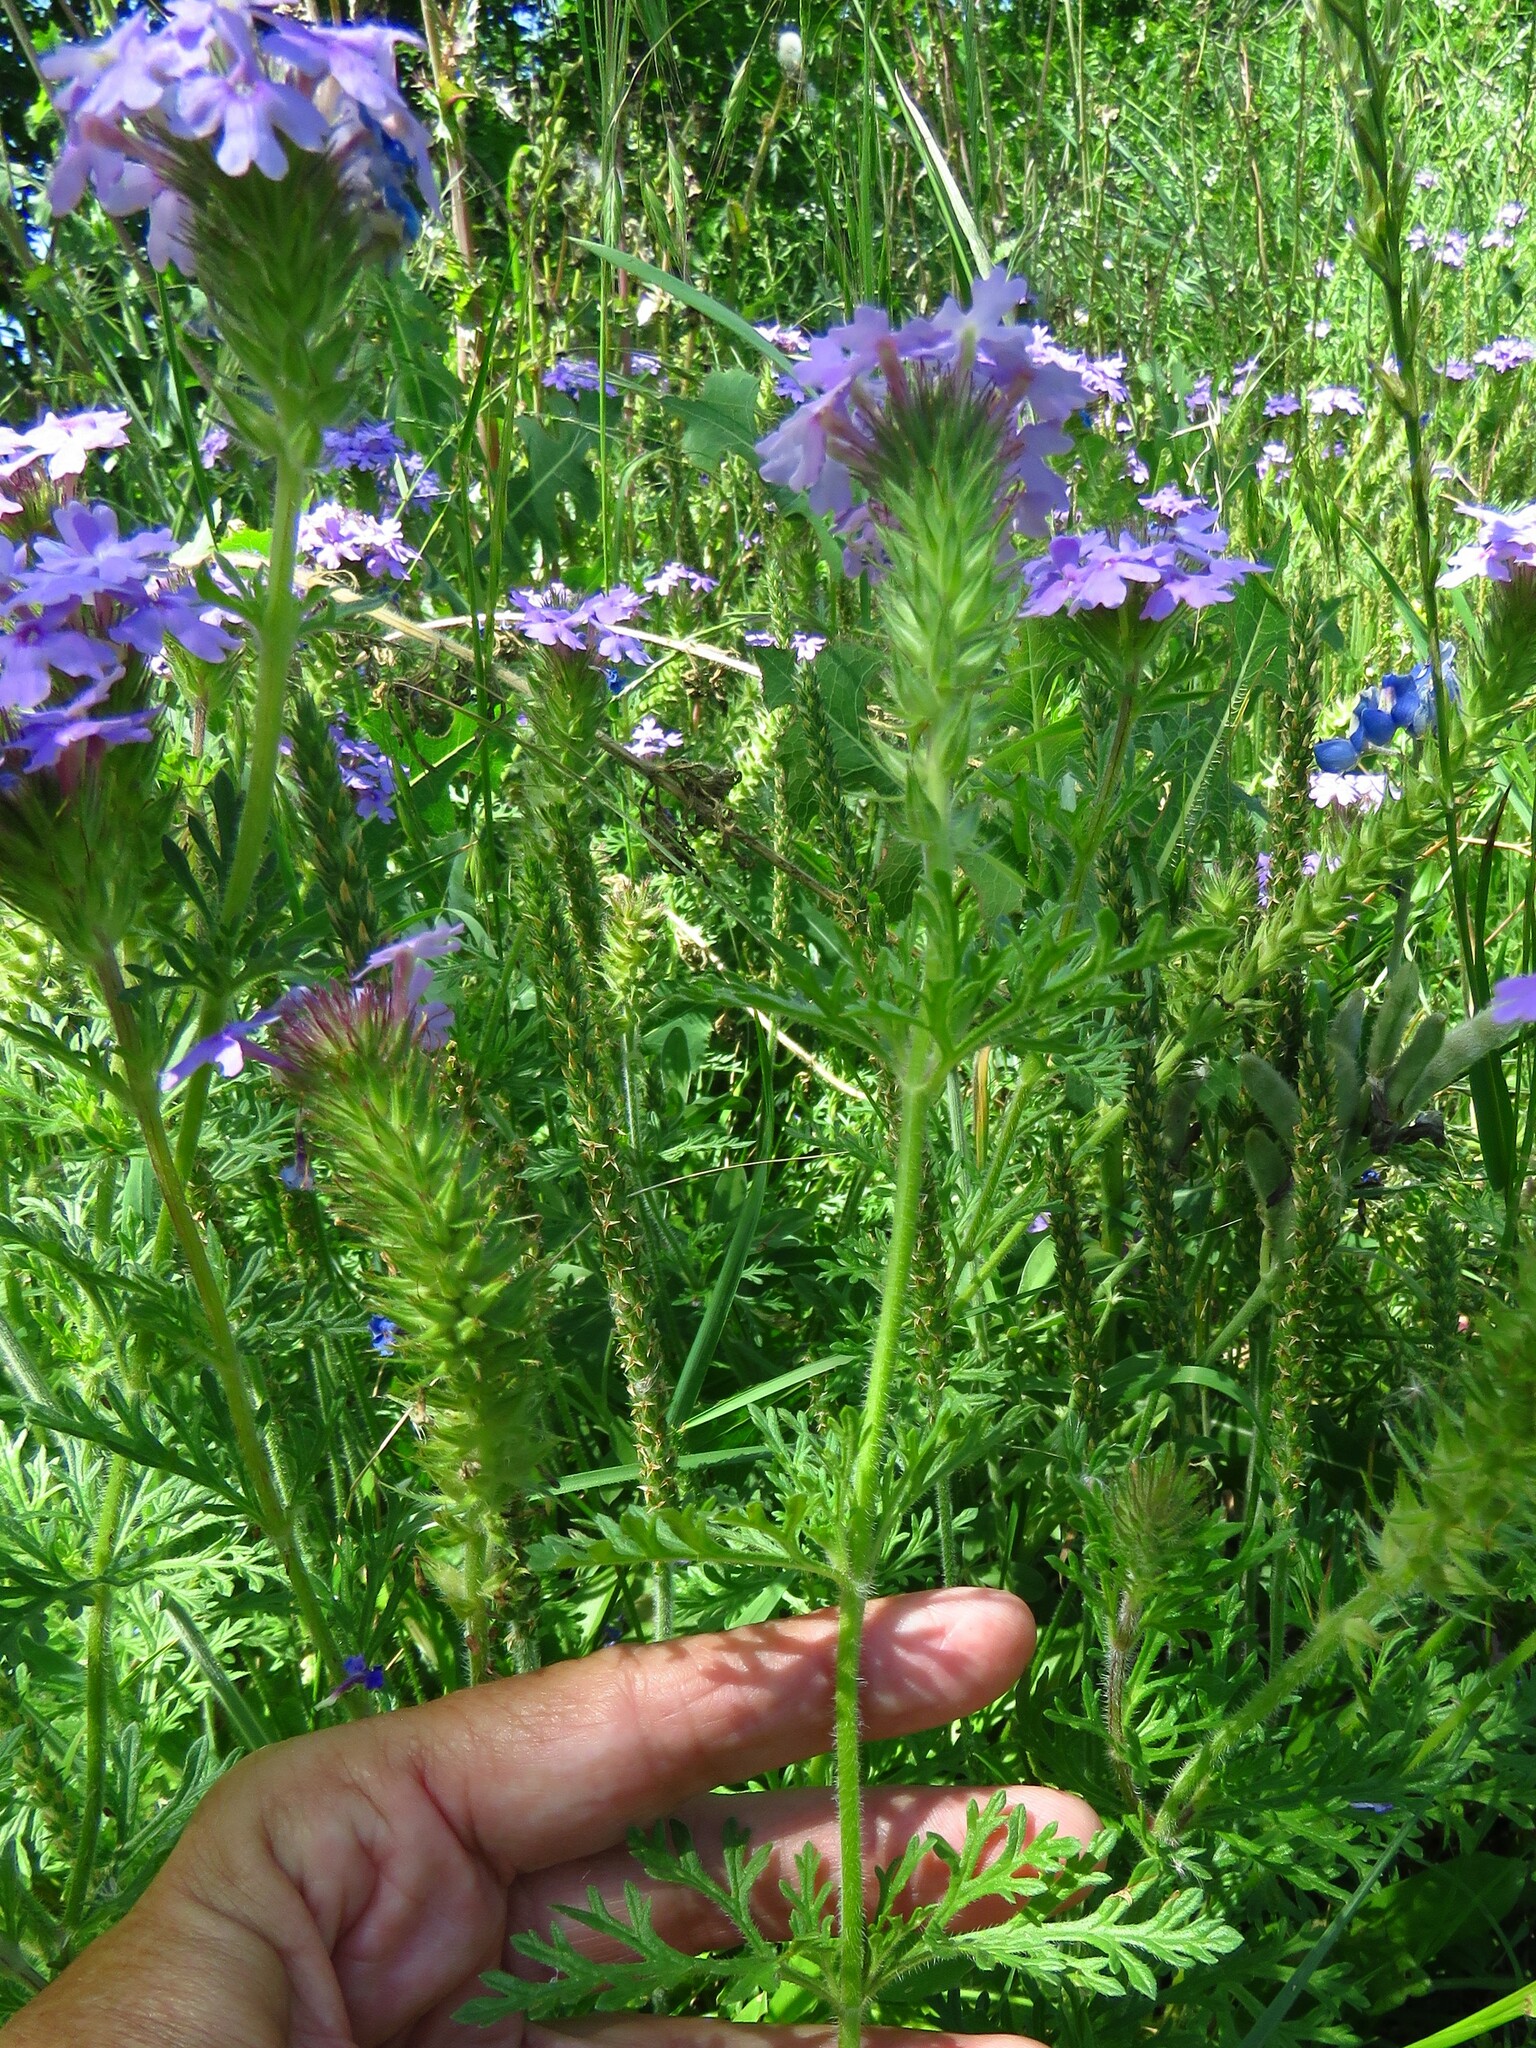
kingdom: Plantae
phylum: Tracheophyta
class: Magnoliopsida
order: Lamiales
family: Verbenaceae
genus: Verbena
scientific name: Verbena bipinnatifida
